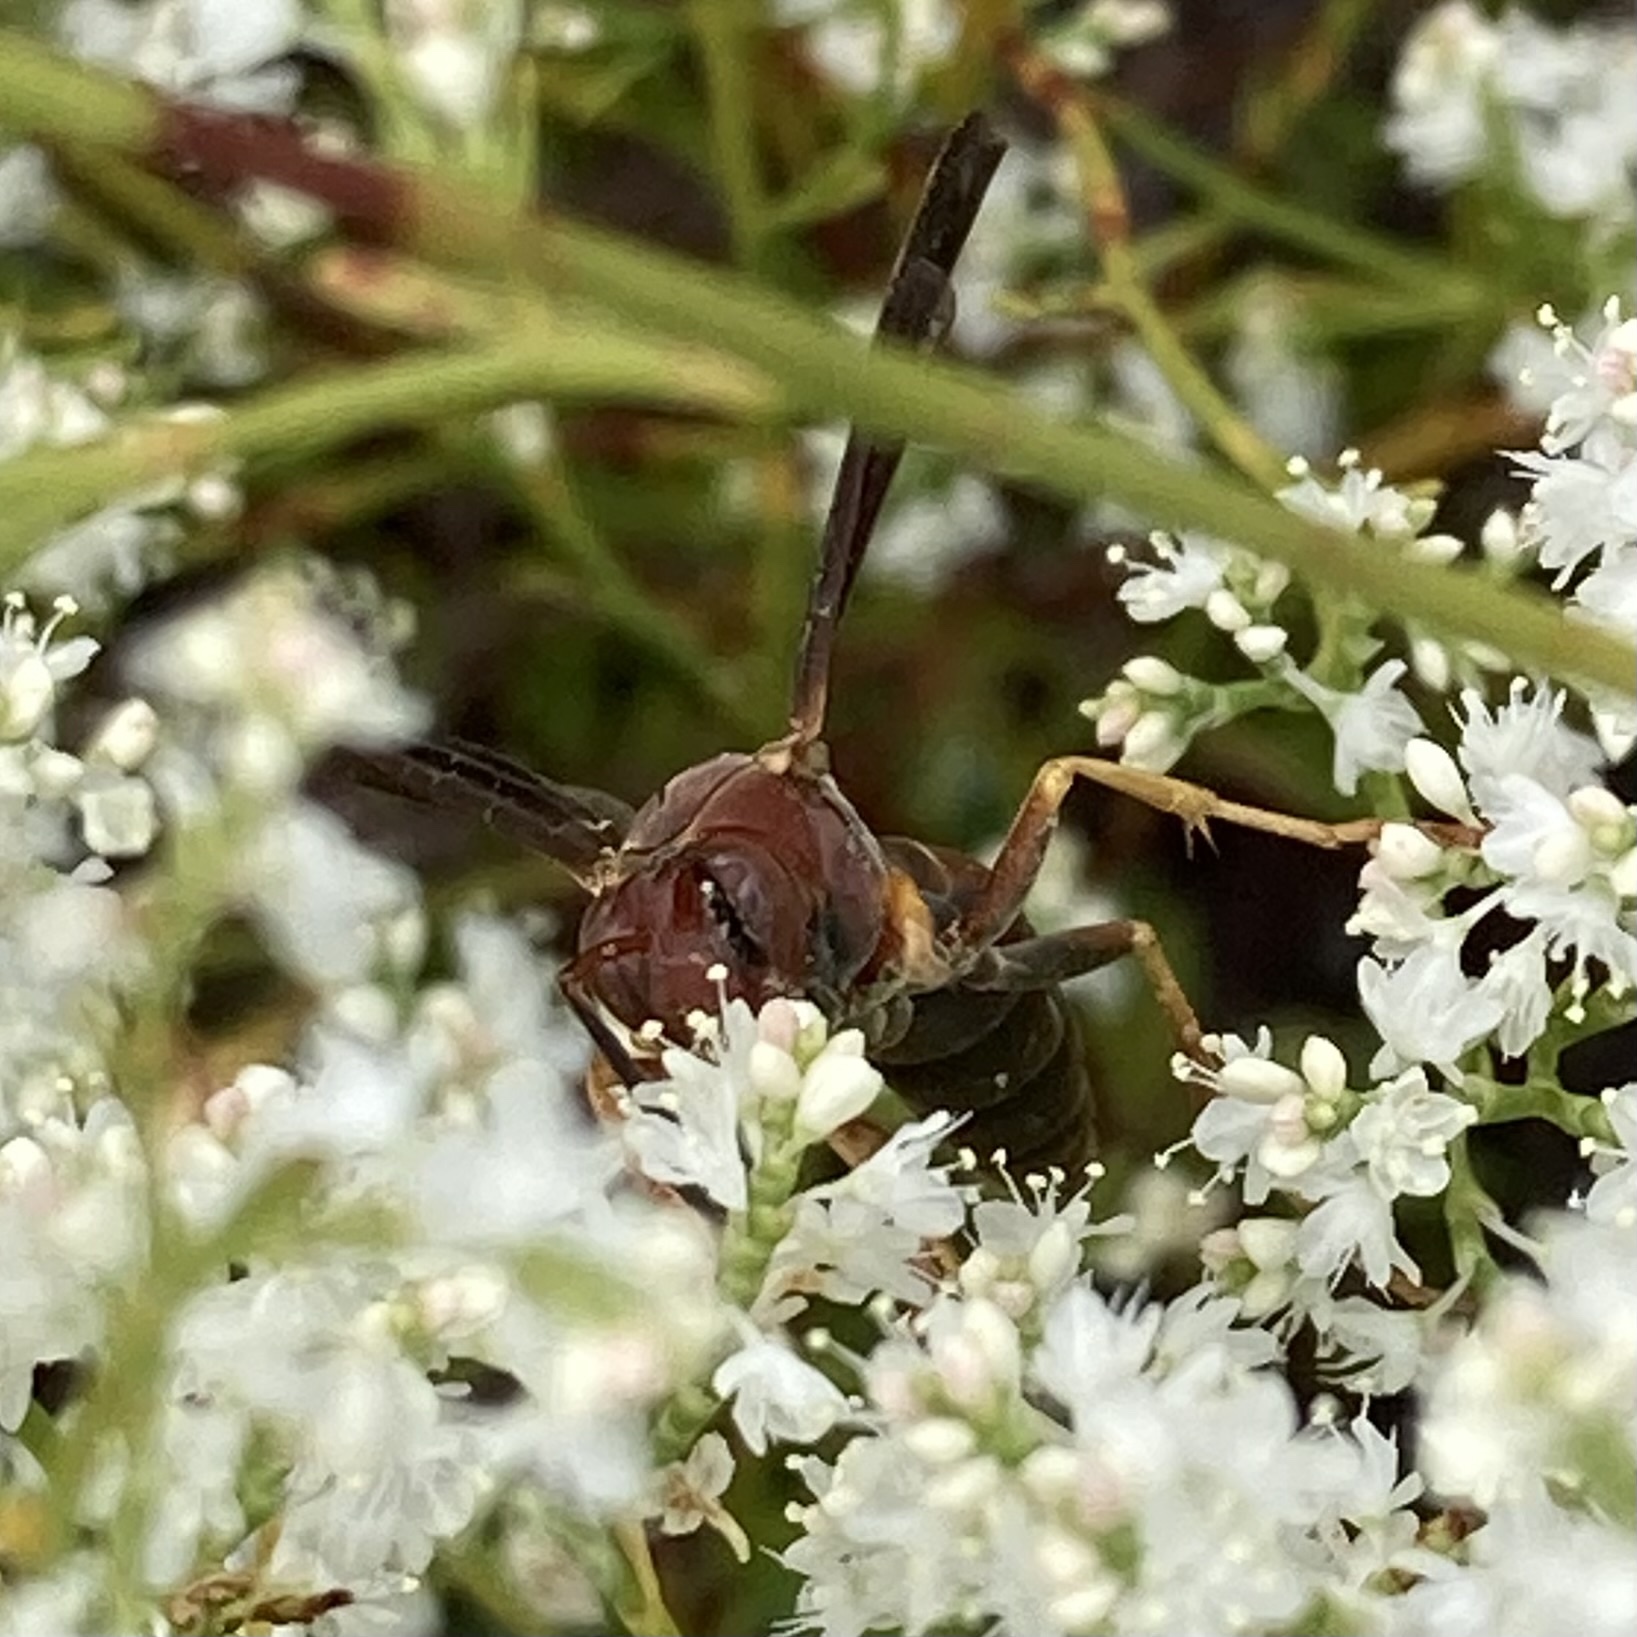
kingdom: Animalia
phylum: Arthropoda
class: Insecta
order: Hymenoptera
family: Eumenidae
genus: Polistes
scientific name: Polistes metricus
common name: Metric paper wasp
